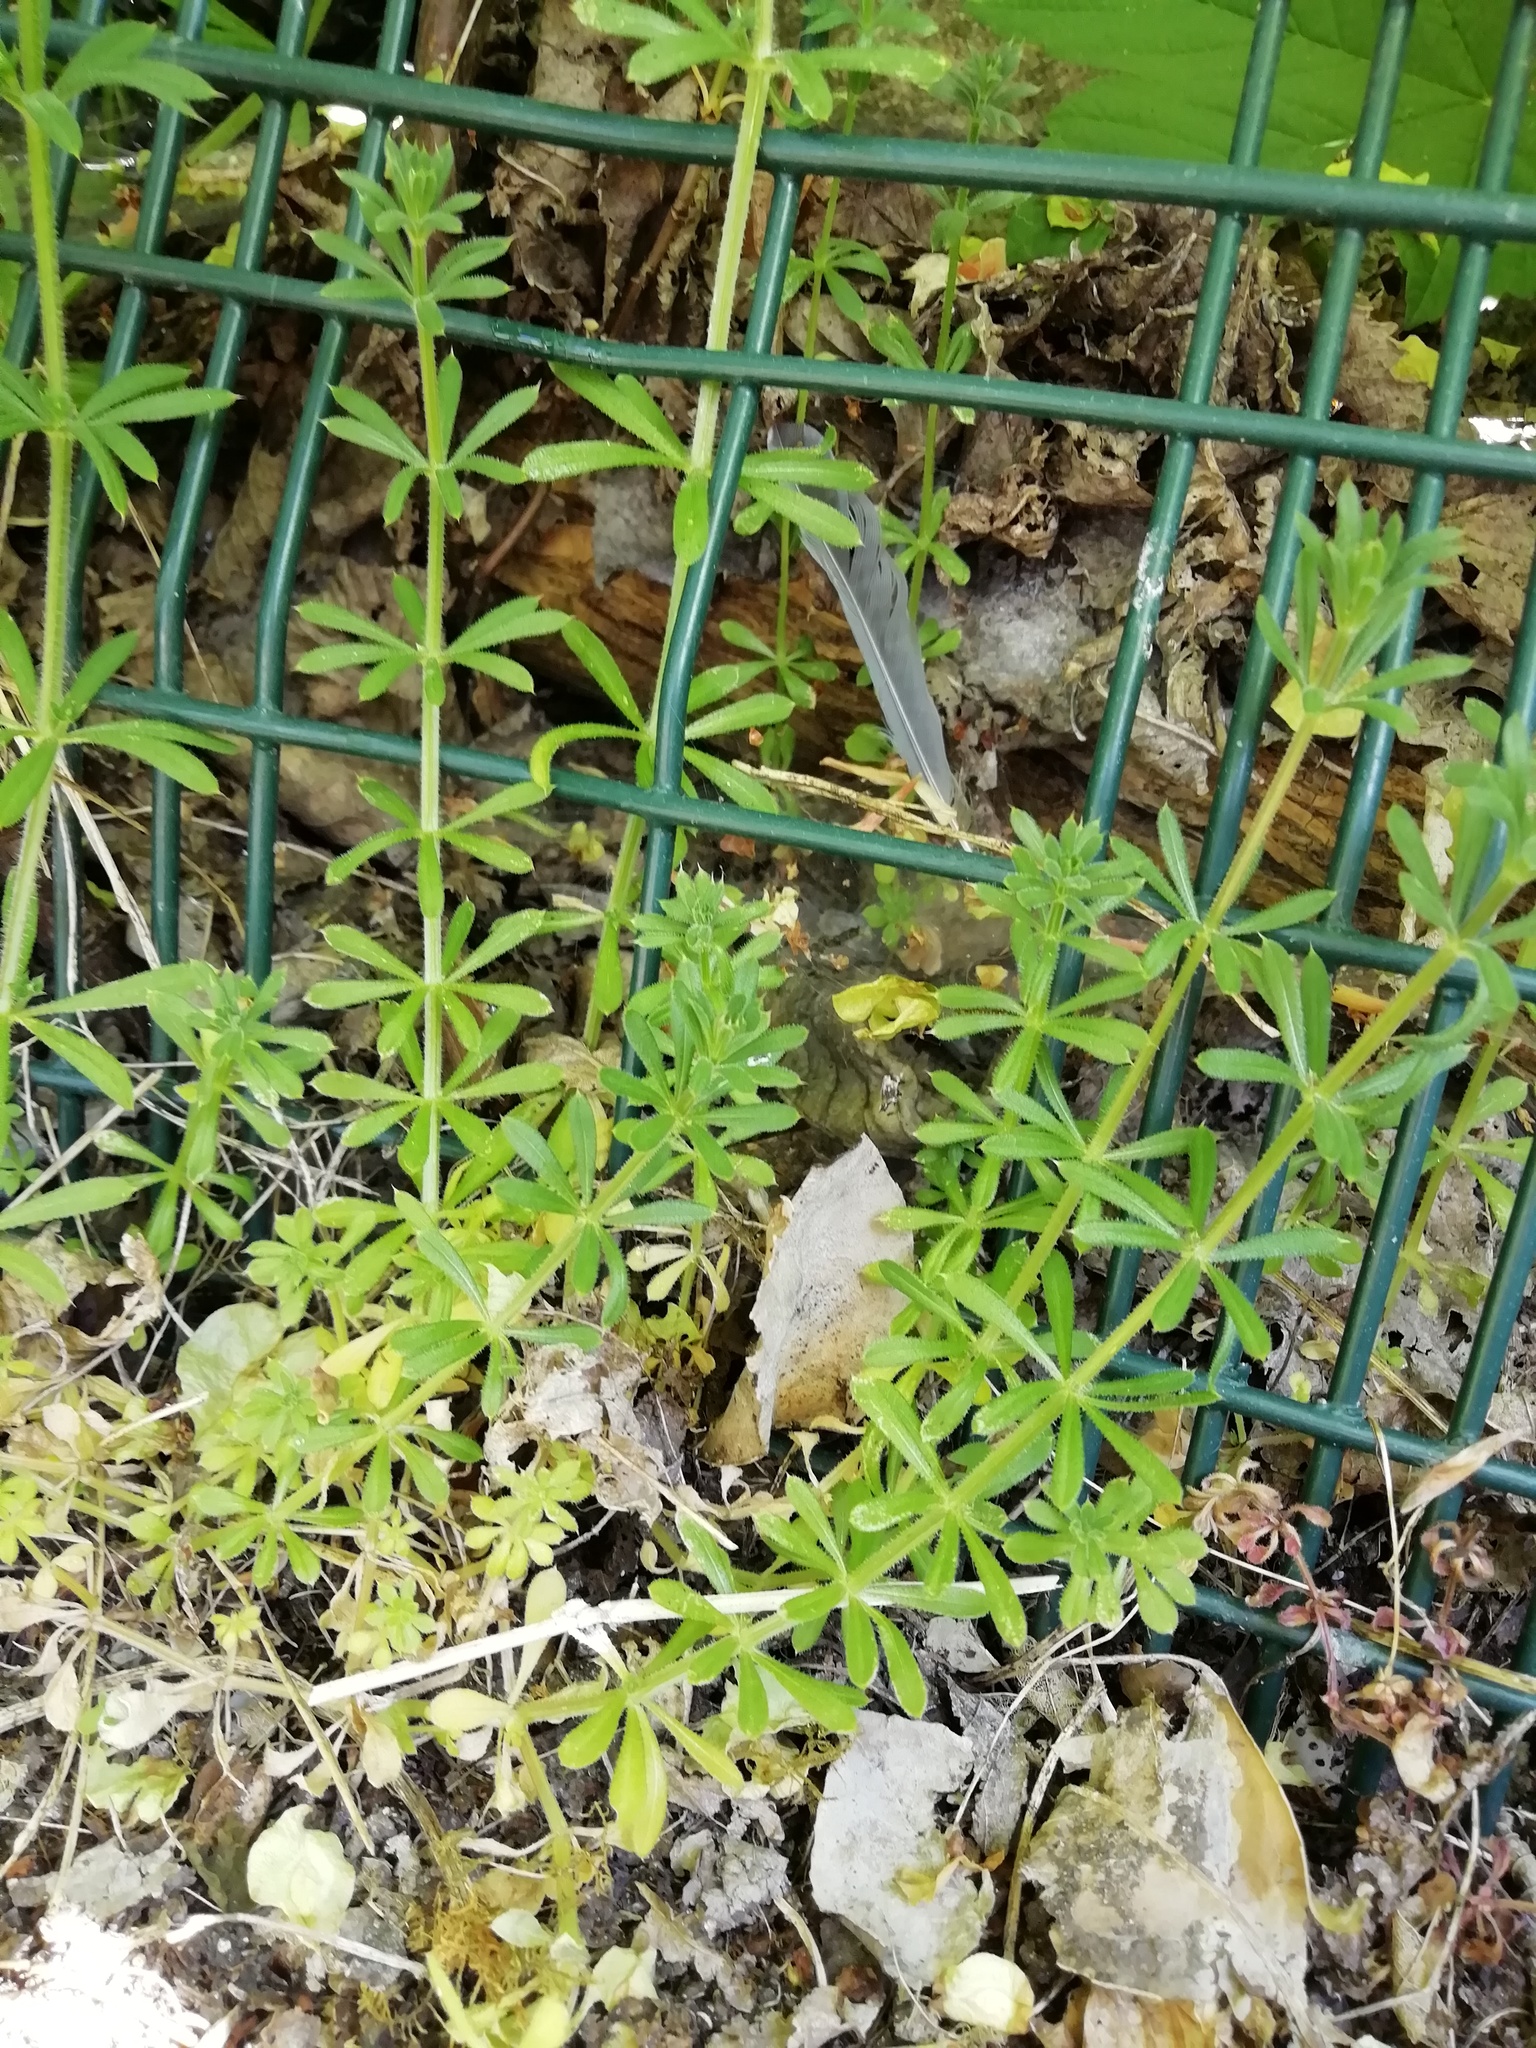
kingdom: Plantae
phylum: Tracheophyta
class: Magnoliopsida
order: Gentianales
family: Rubiaceae
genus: Galium
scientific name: Galium aparine
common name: Cleavers
